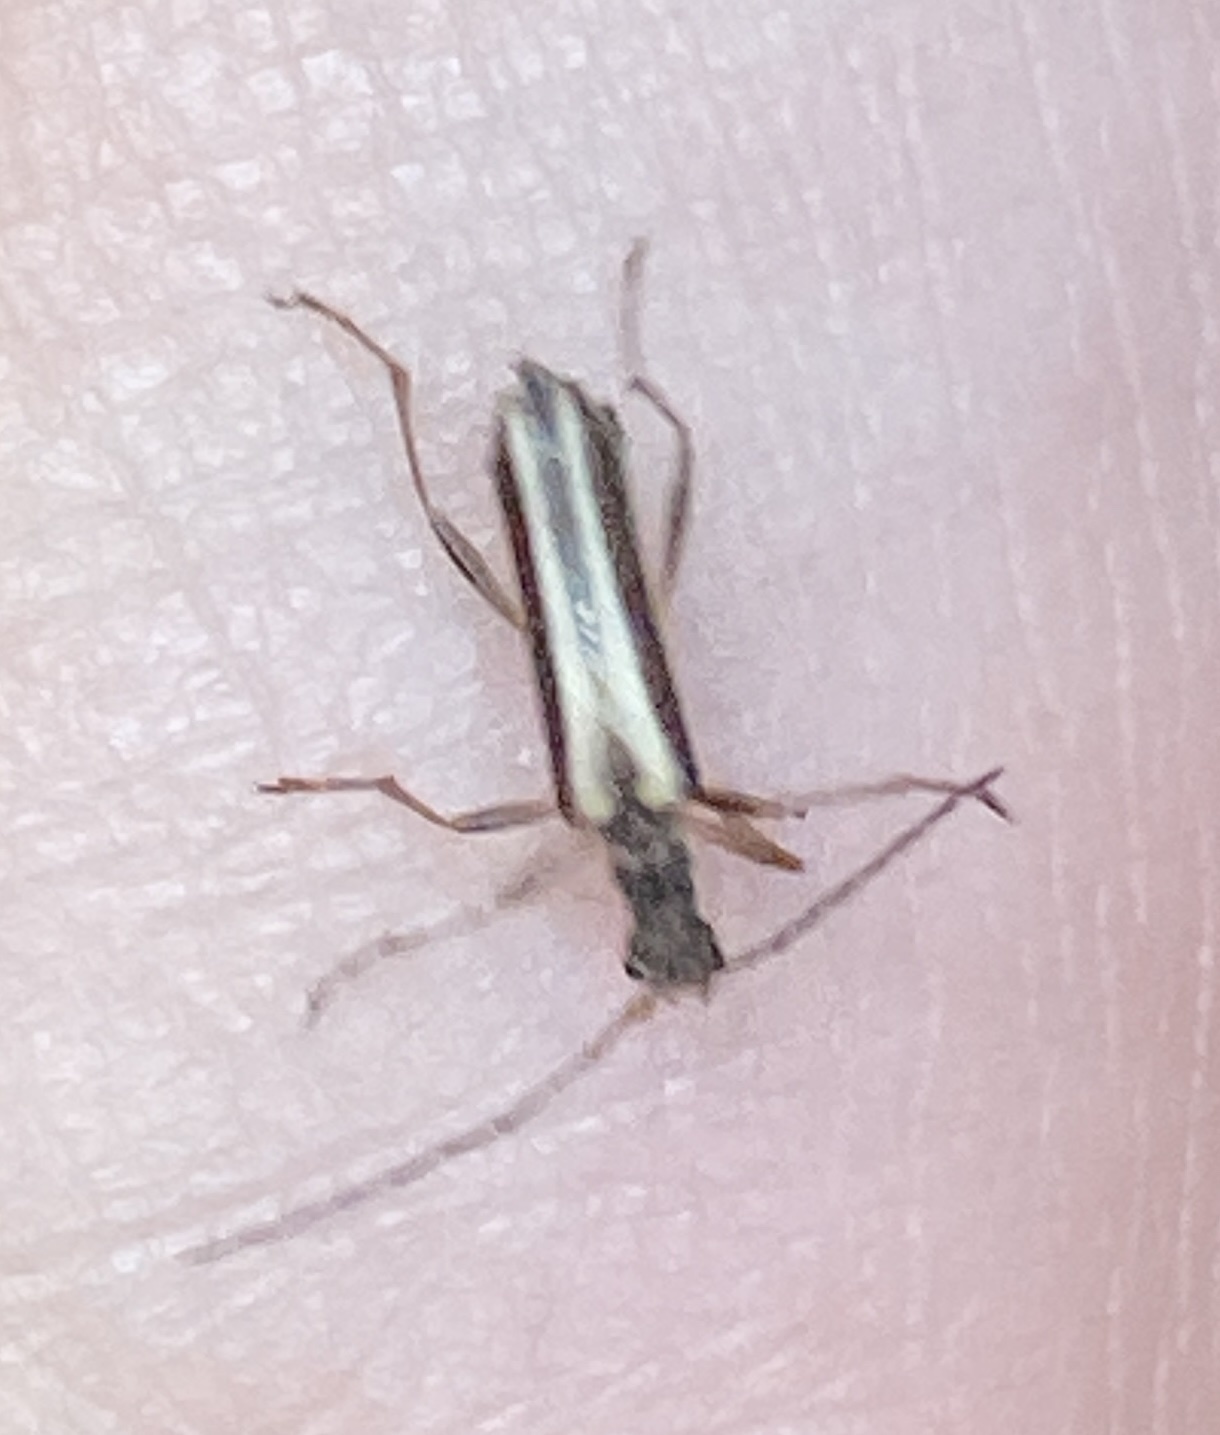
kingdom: Animalia
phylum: Arthropoda
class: Insecta
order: Coleoptera
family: Cerambycidae
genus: Leptalia
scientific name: Leptalia macilenta
